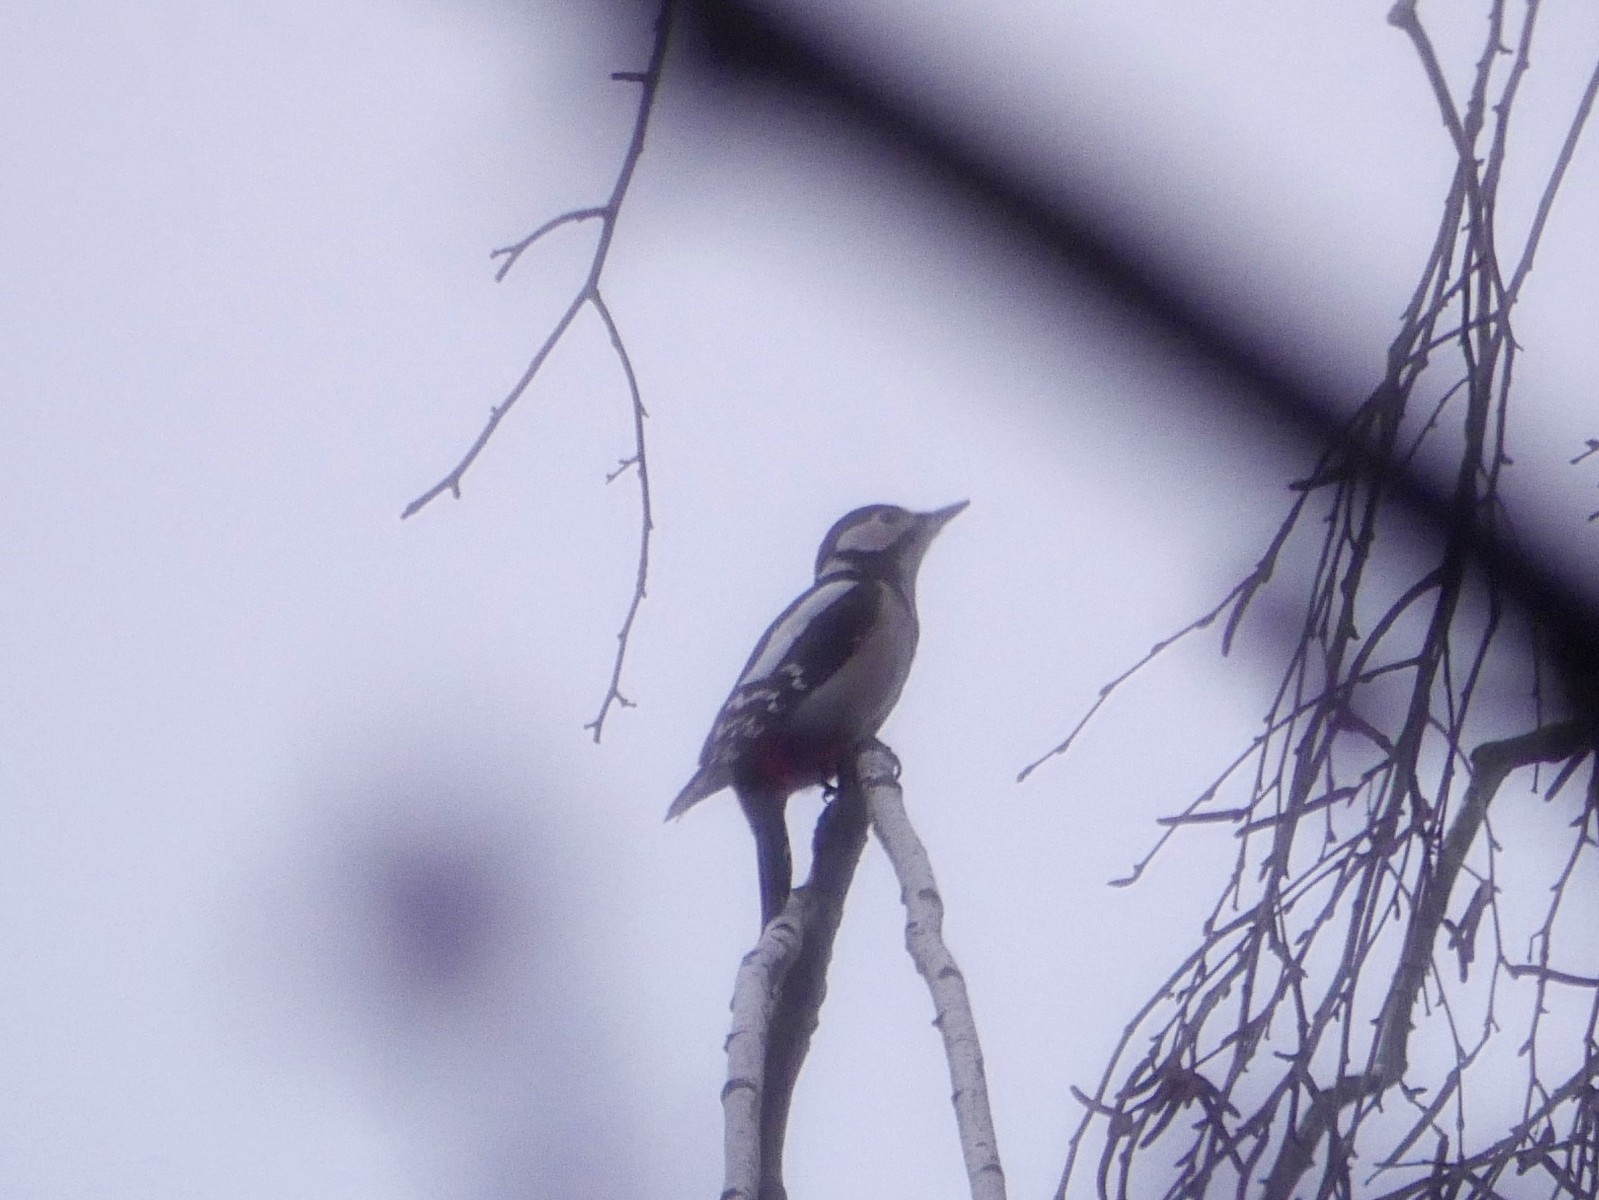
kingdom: Animalia
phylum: Chordata
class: Aves
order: Piciformes
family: Picidae
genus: Dendrocopos
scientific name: Dendrocopos major
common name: Great spotted woodpecker
